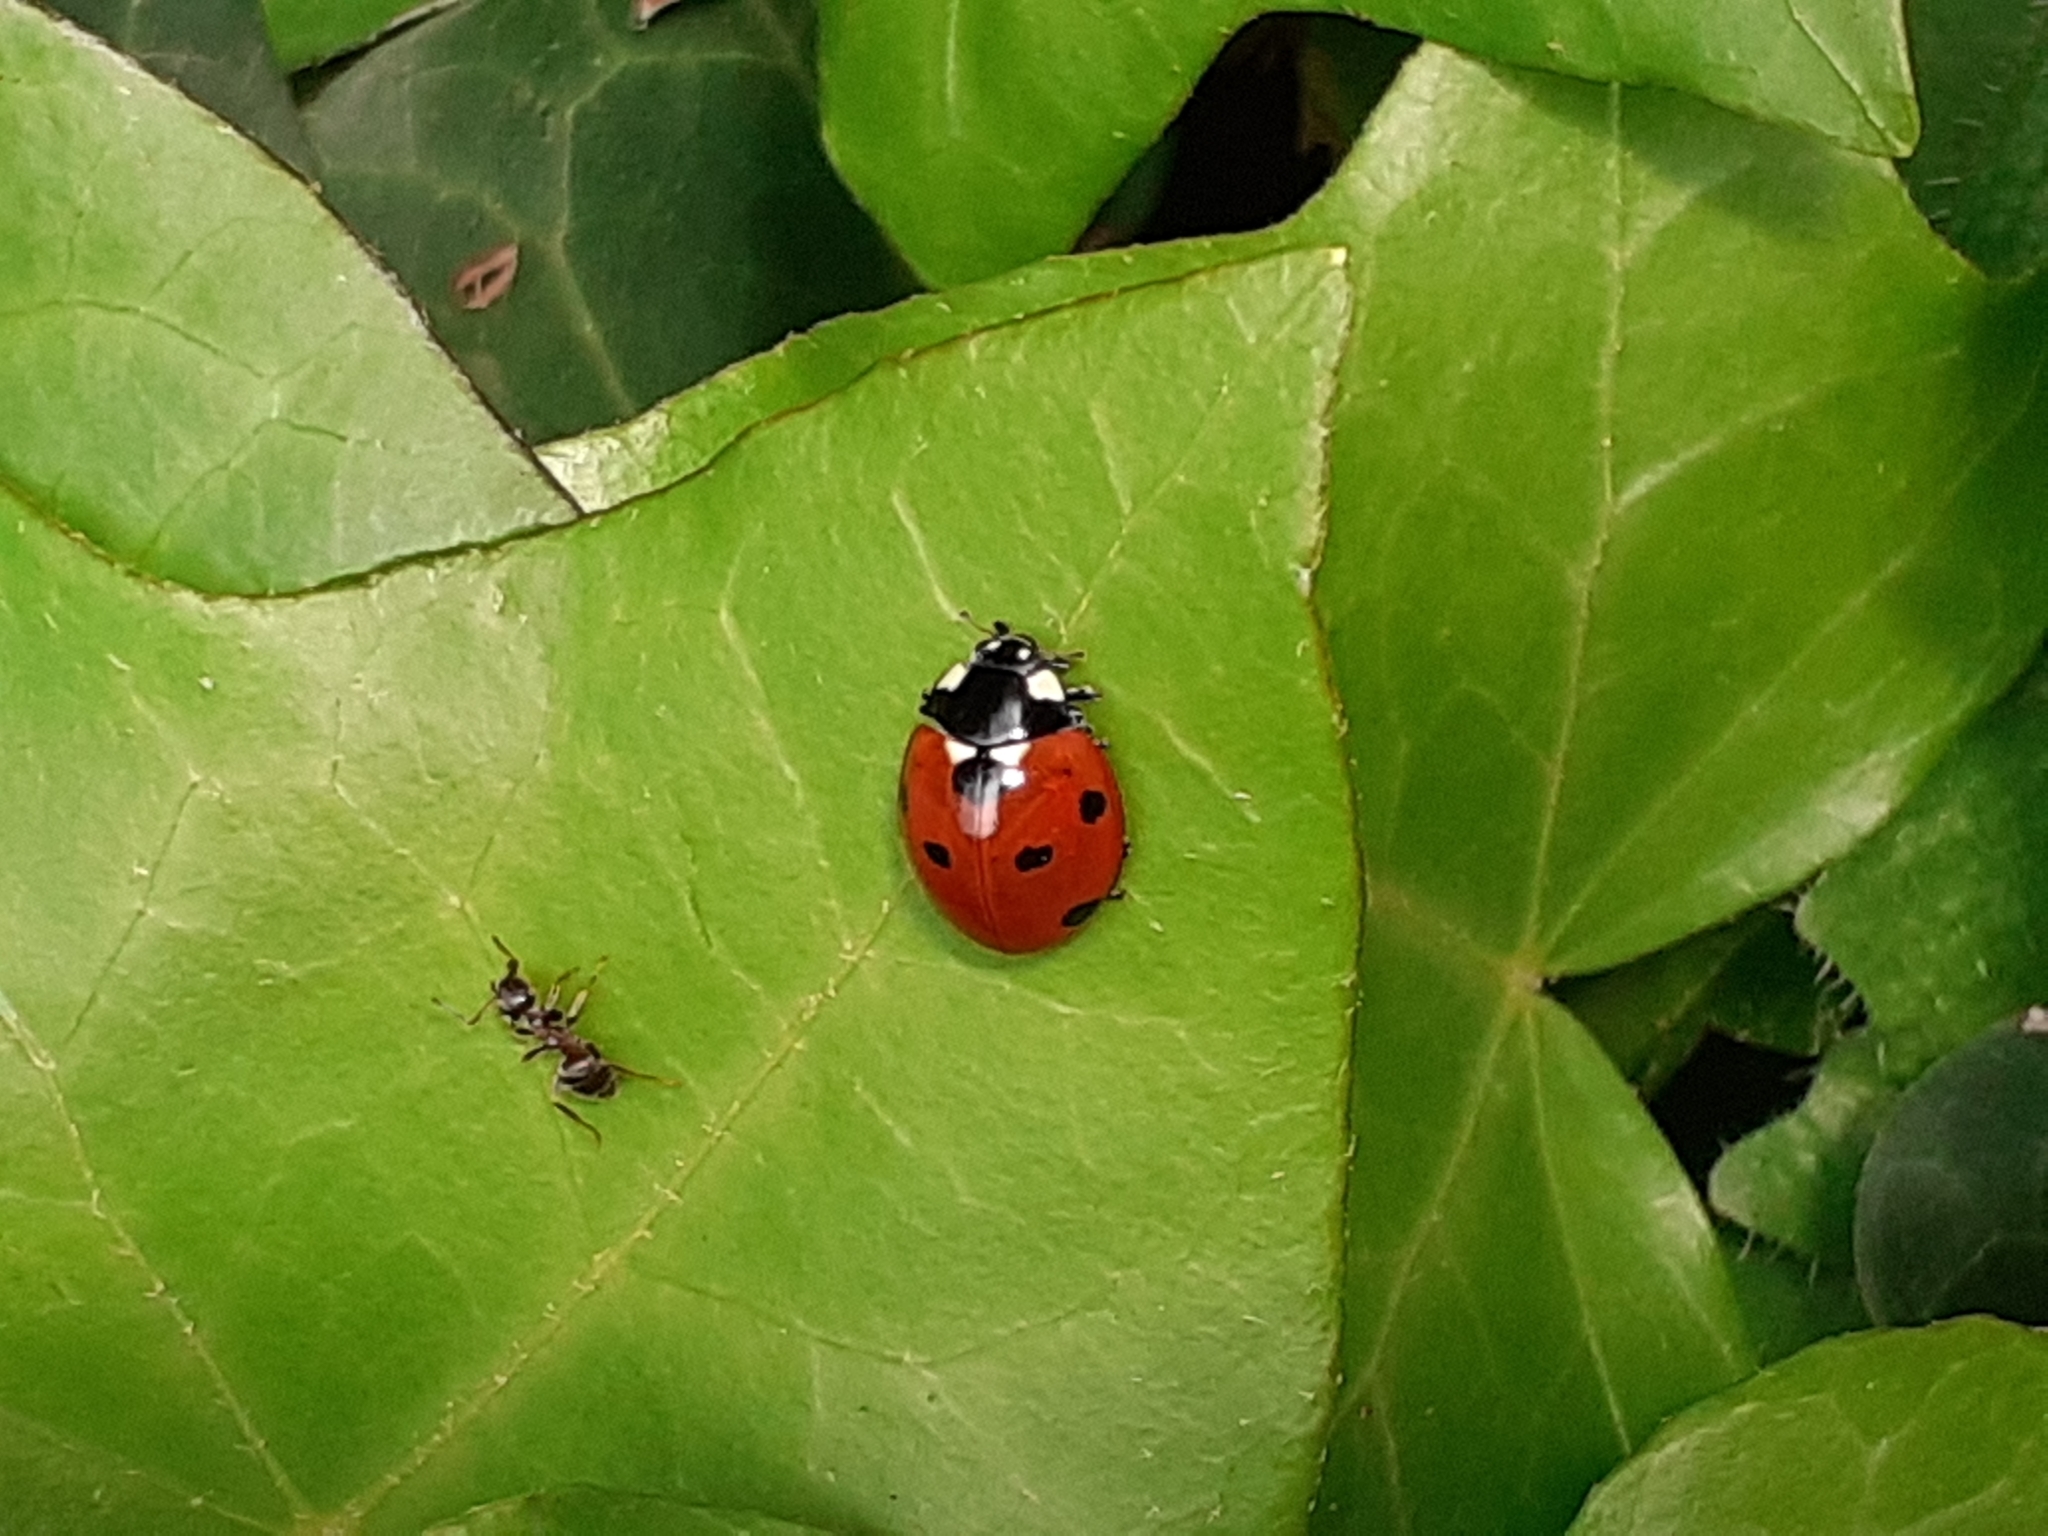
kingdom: Animalia
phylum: Arthropoda
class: Insecta
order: Coleoptera
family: Coccinellidae
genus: Coccinella
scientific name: Coccinella septempunctata
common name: Sevenspotted lady beetle
